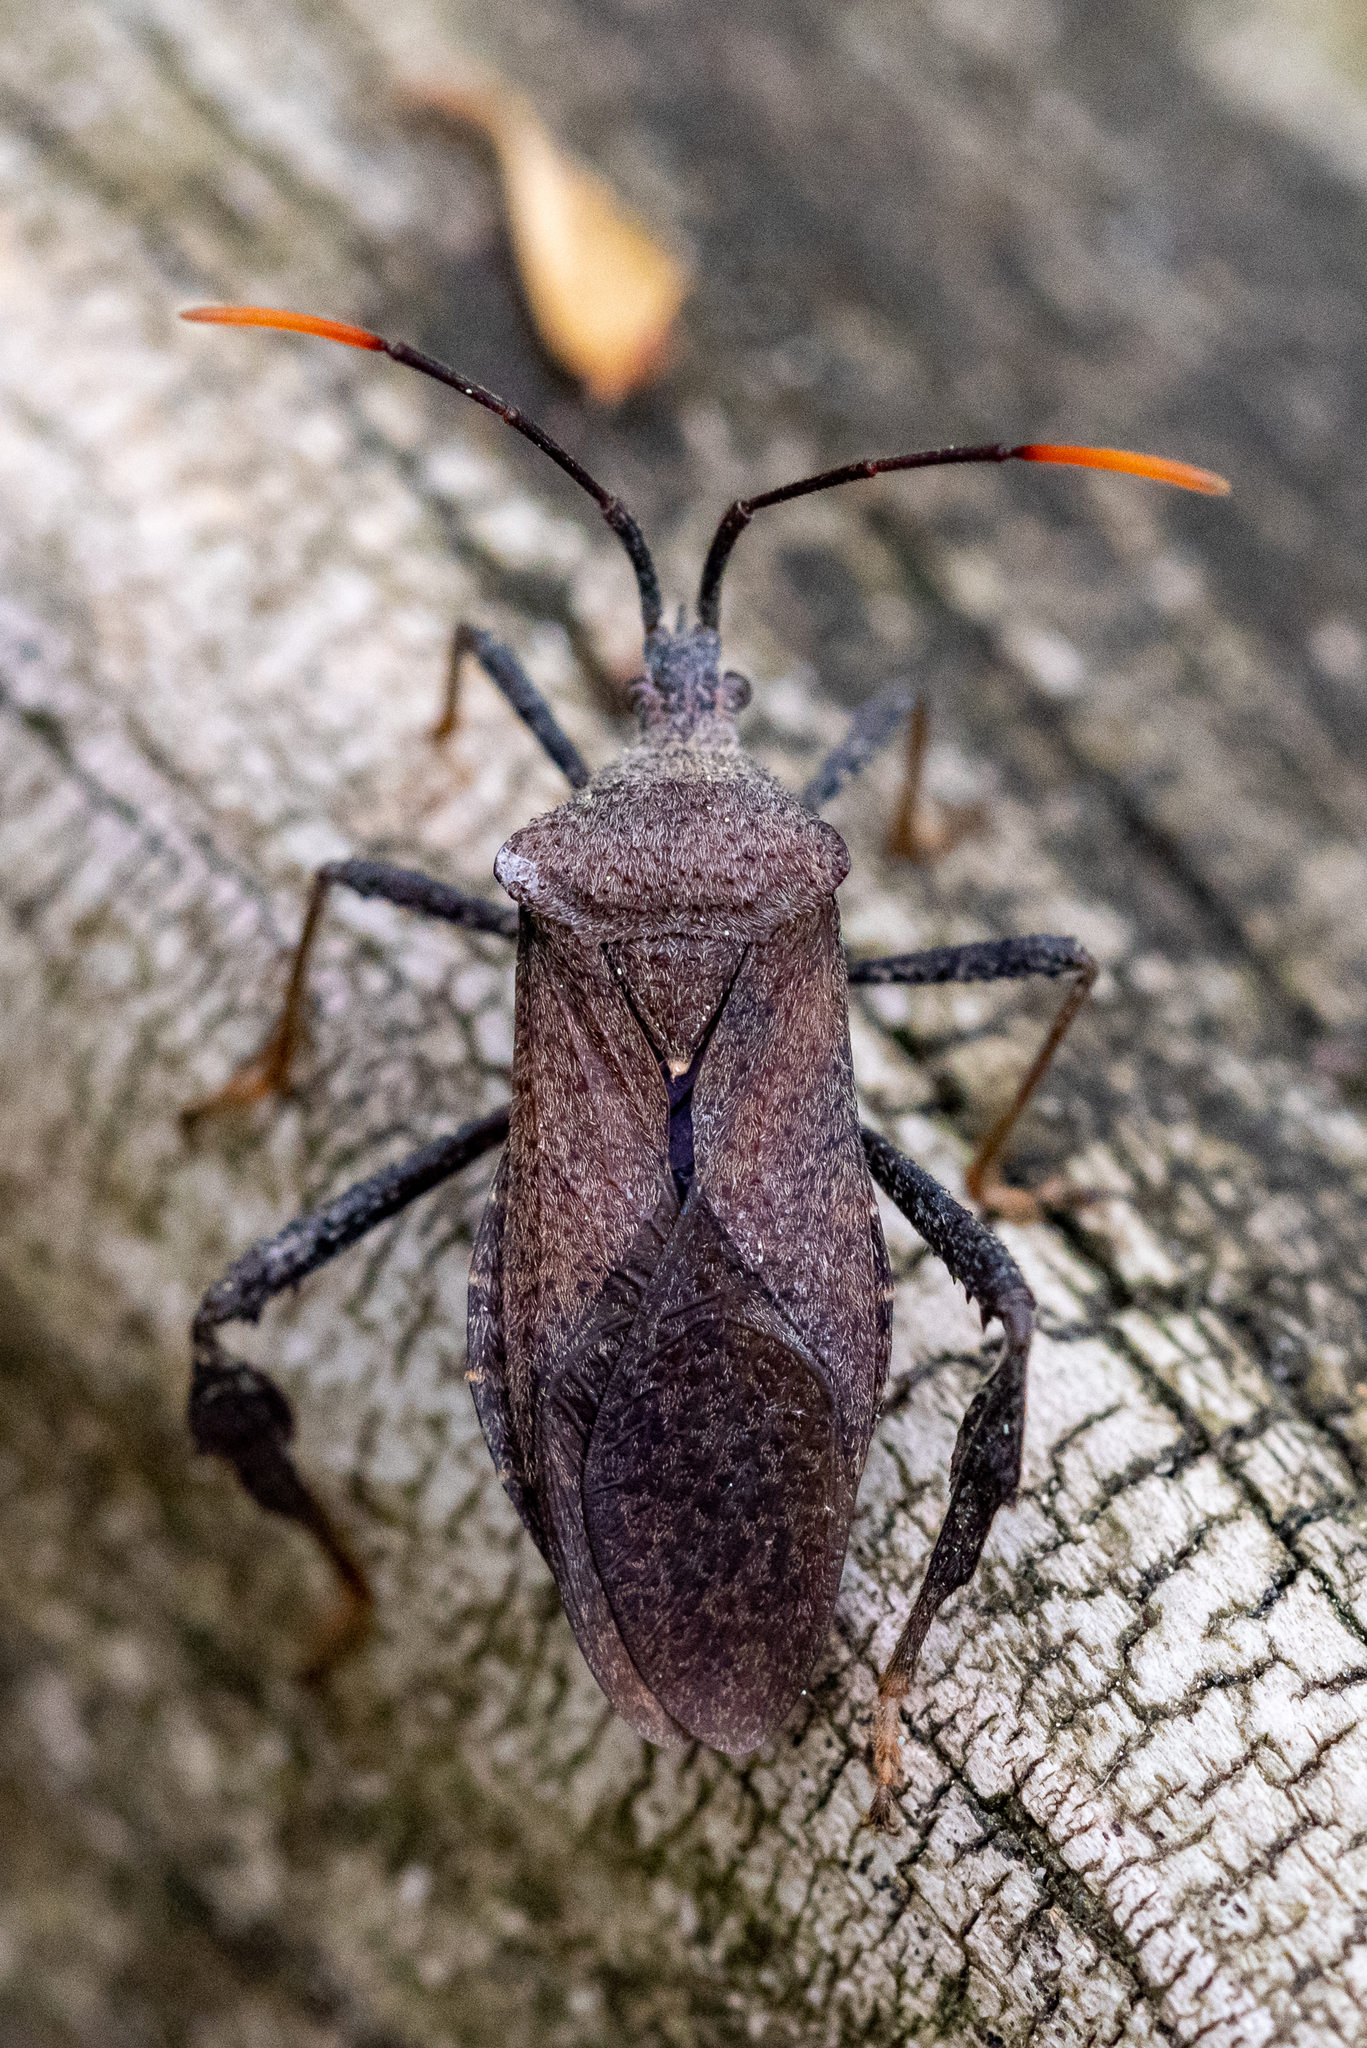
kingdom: Animalia
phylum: Arthropoda
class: Insecta
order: Hemiptera
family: Coreidae
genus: Acanthocephala
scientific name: Acanthocephala terminalis
